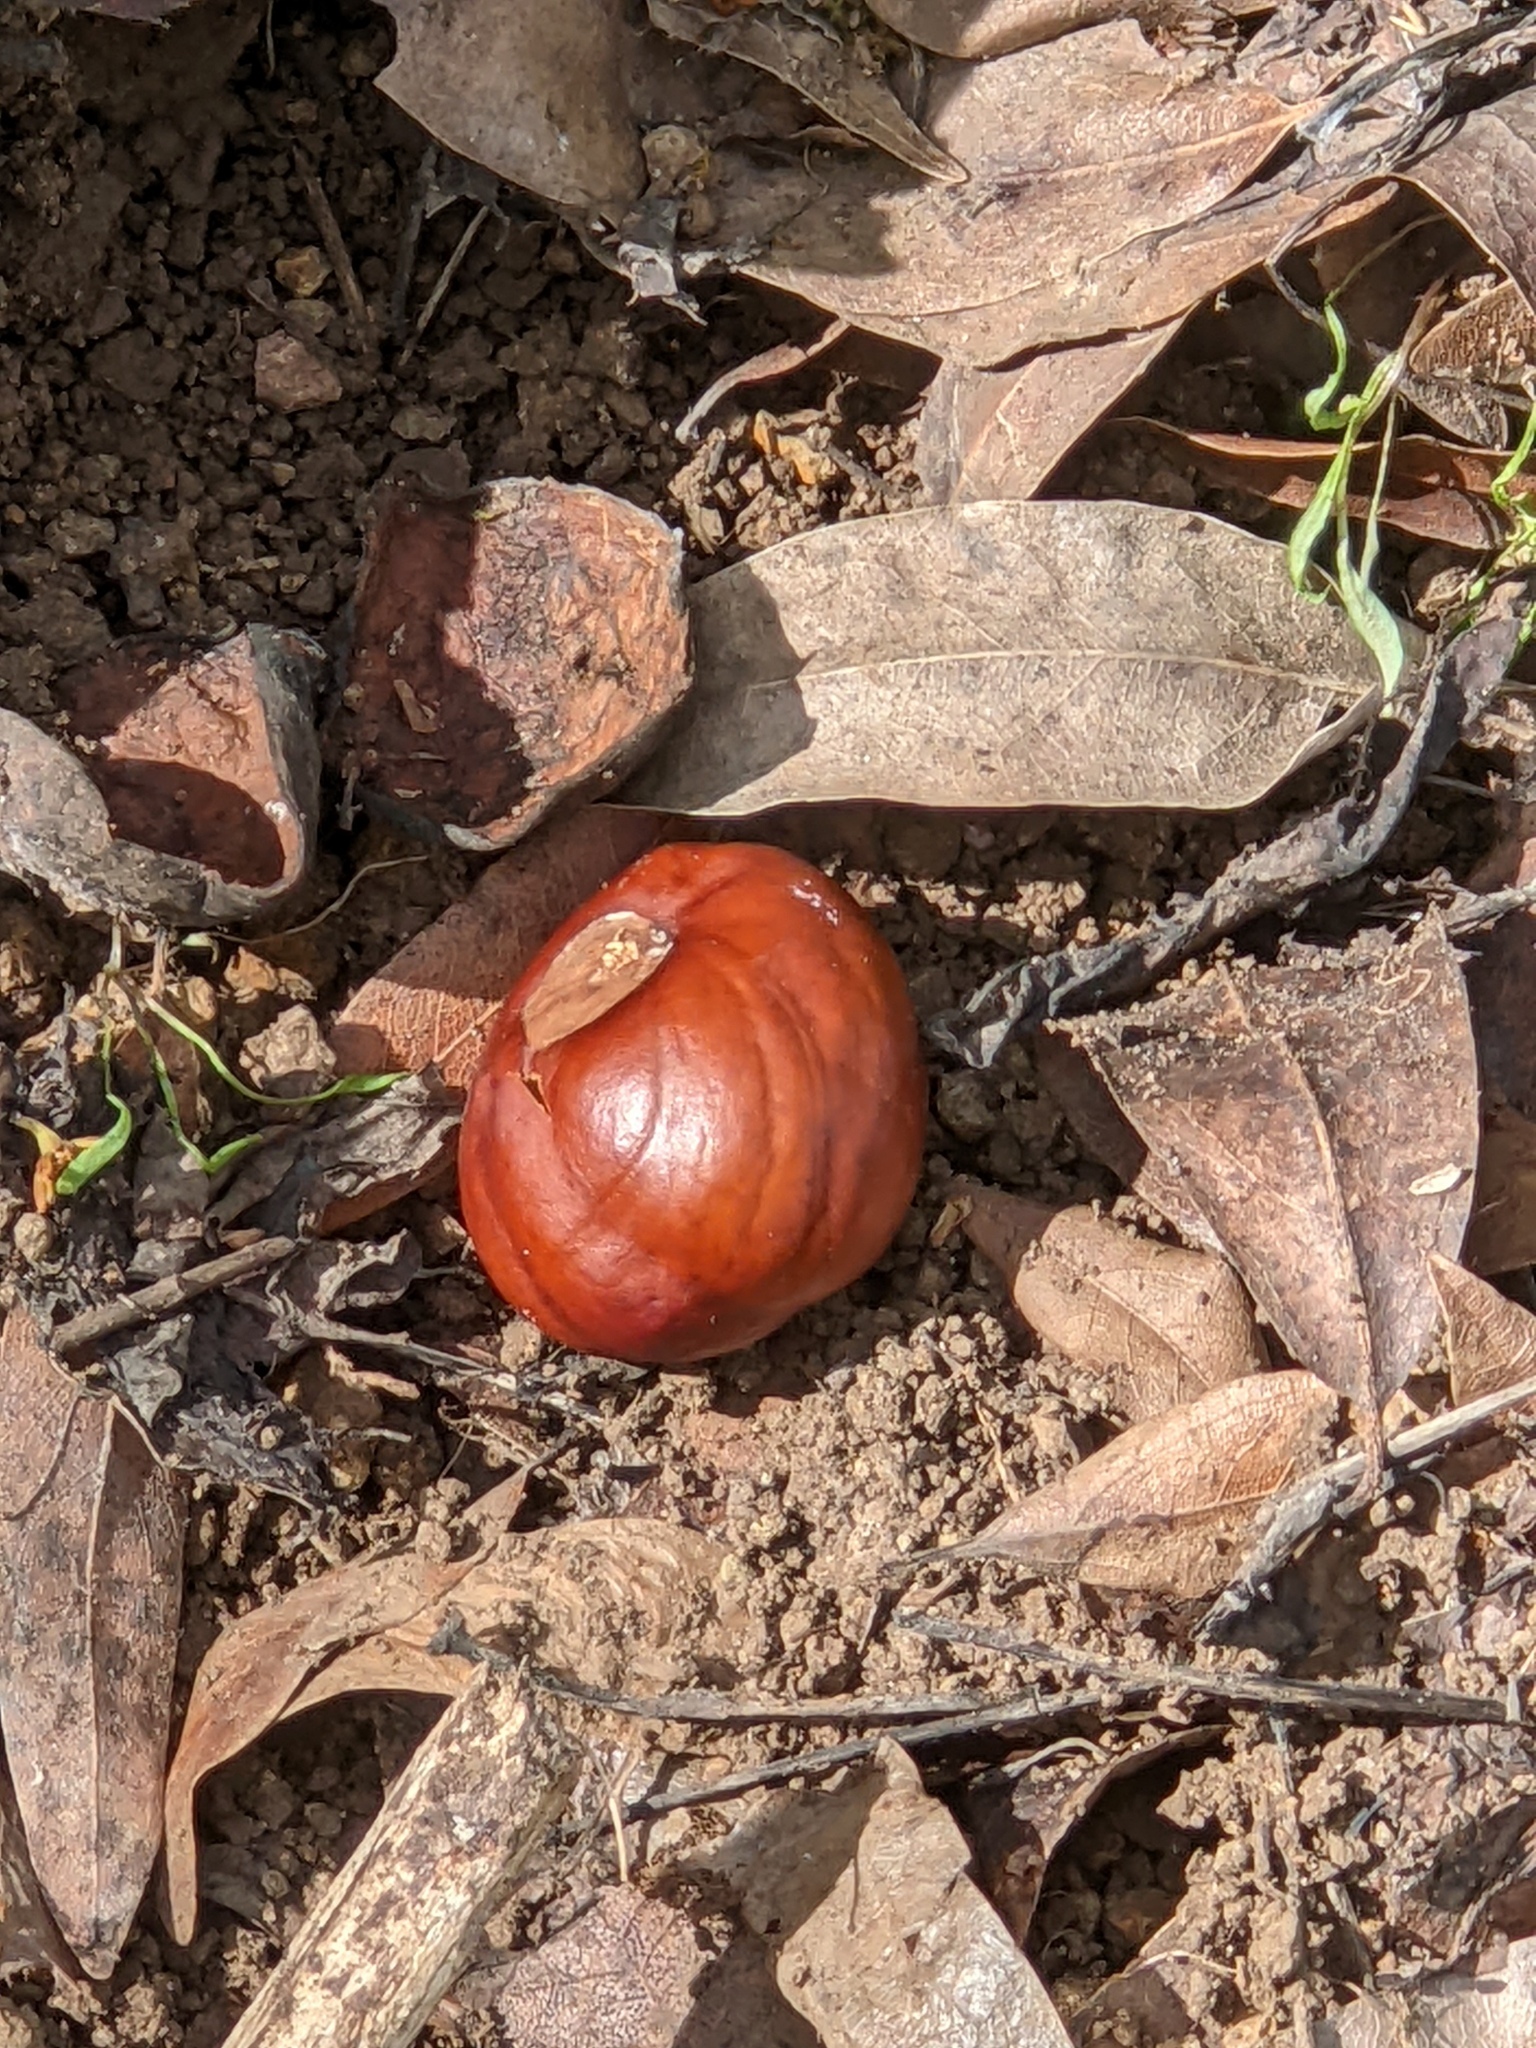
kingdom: Plantae
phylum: Tracheophyta
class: Magnoliopsida
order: Sapindales
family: Sapindaceae
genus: Aesculus
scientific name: Aesculus californica
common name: California buckeye
